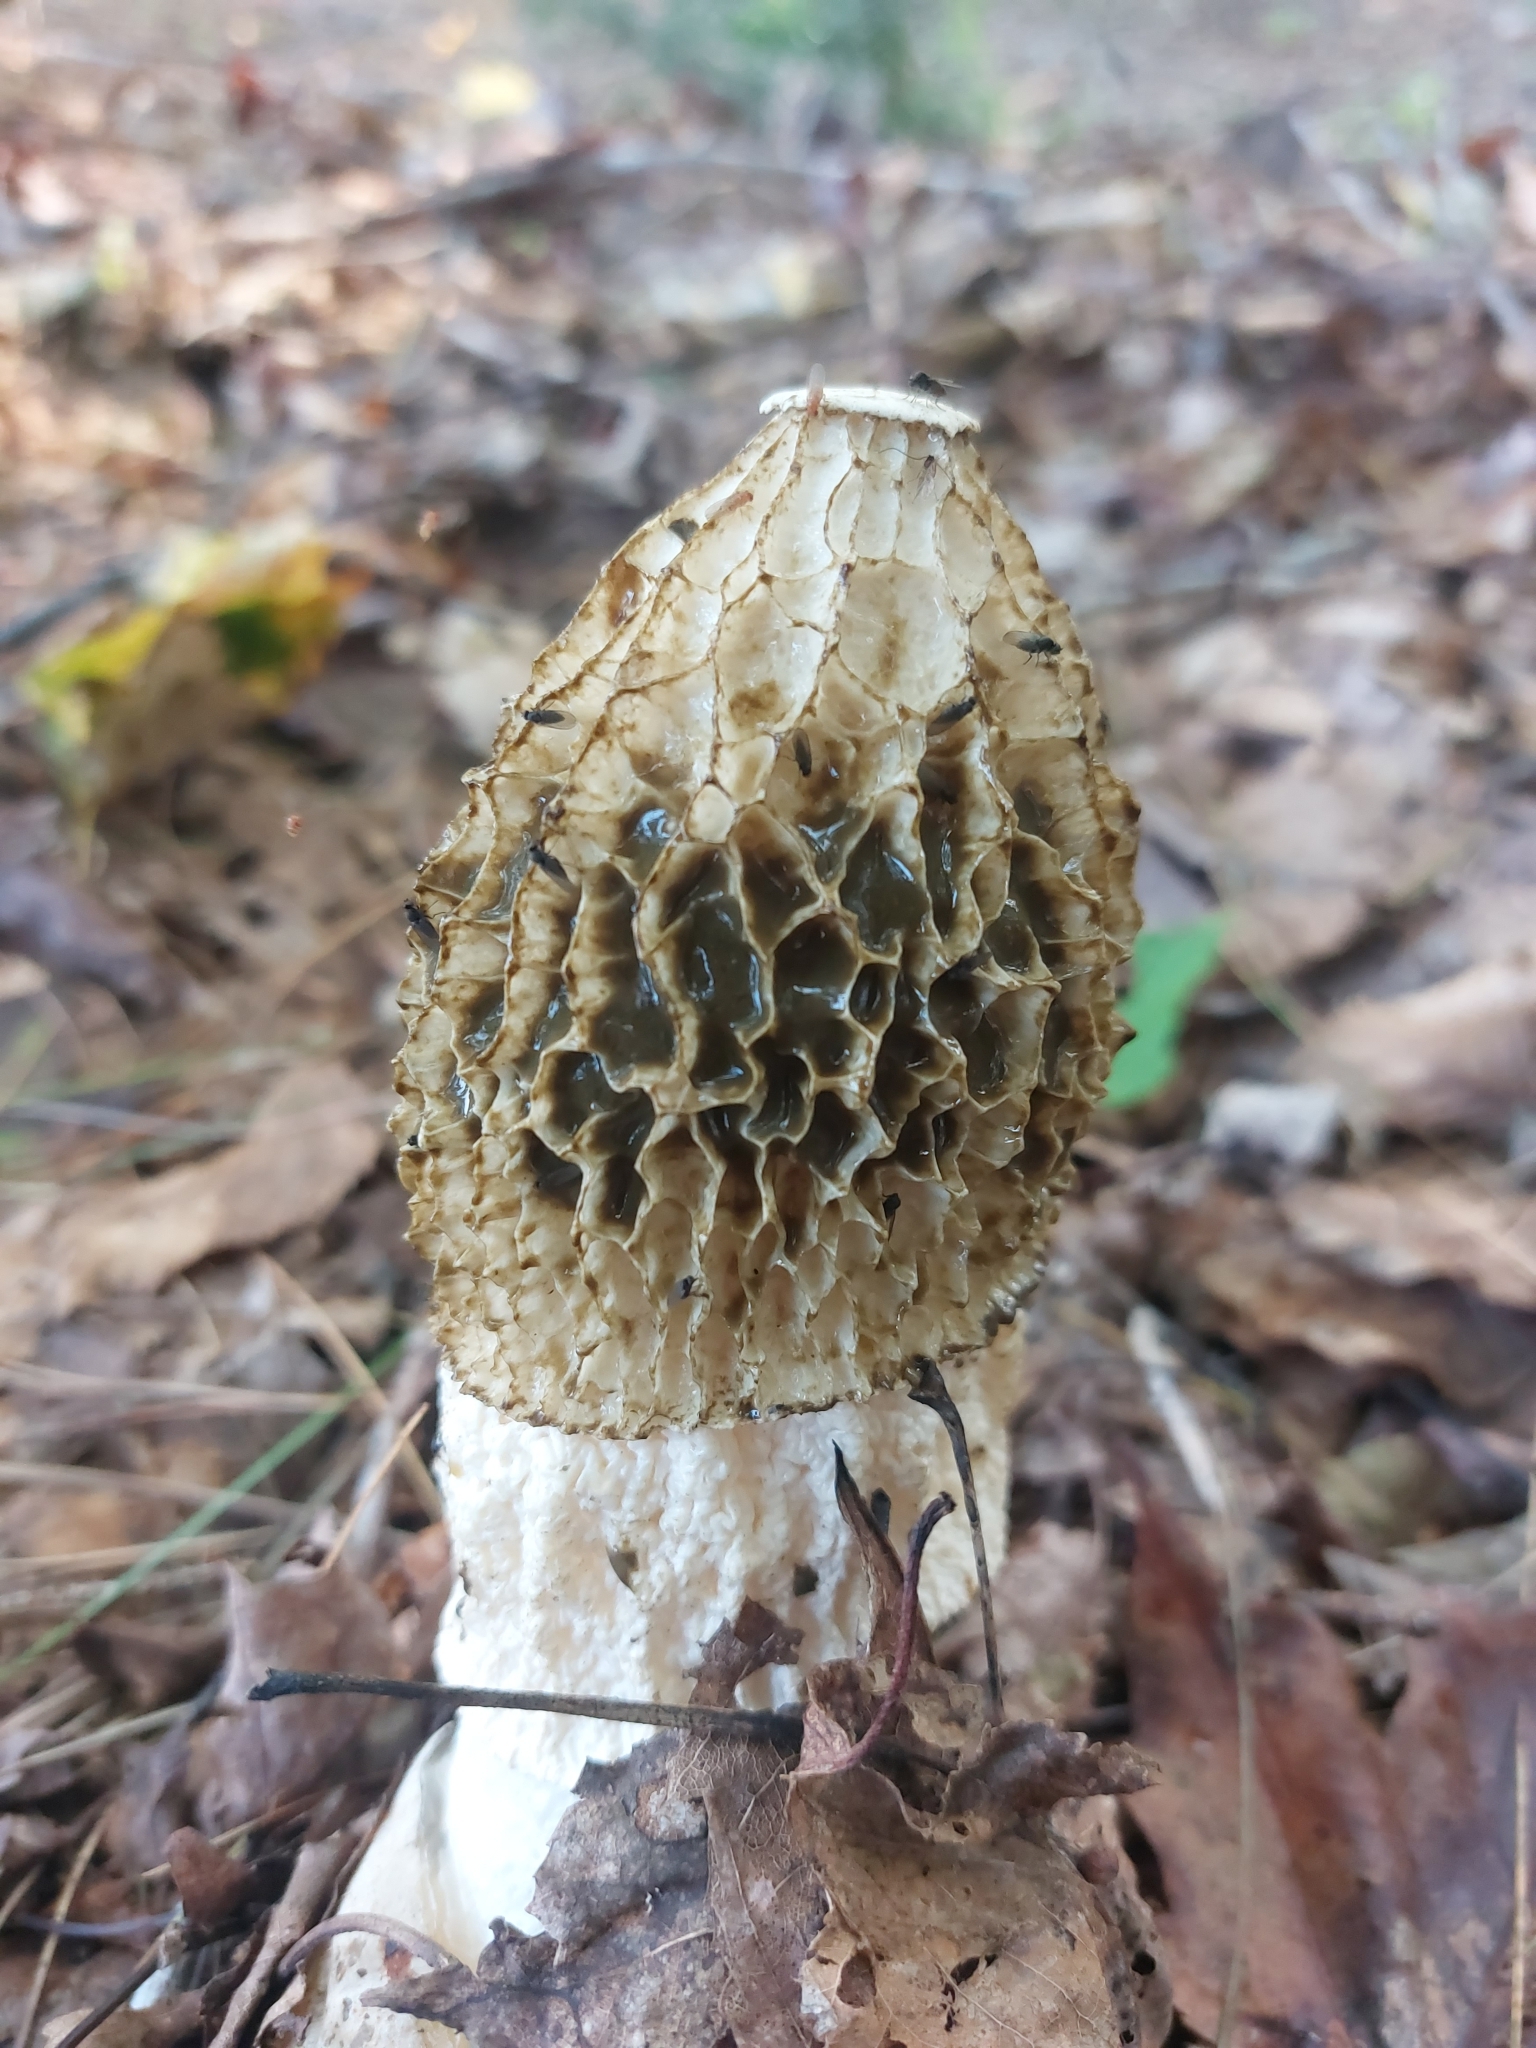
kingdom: Fungi
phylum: Basidiomycota
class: Agaricomycetes
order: Phallales
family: Phallaceae
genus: Phallus
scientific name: Phallus indusiatus
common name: Bridal veil stinkhorn
